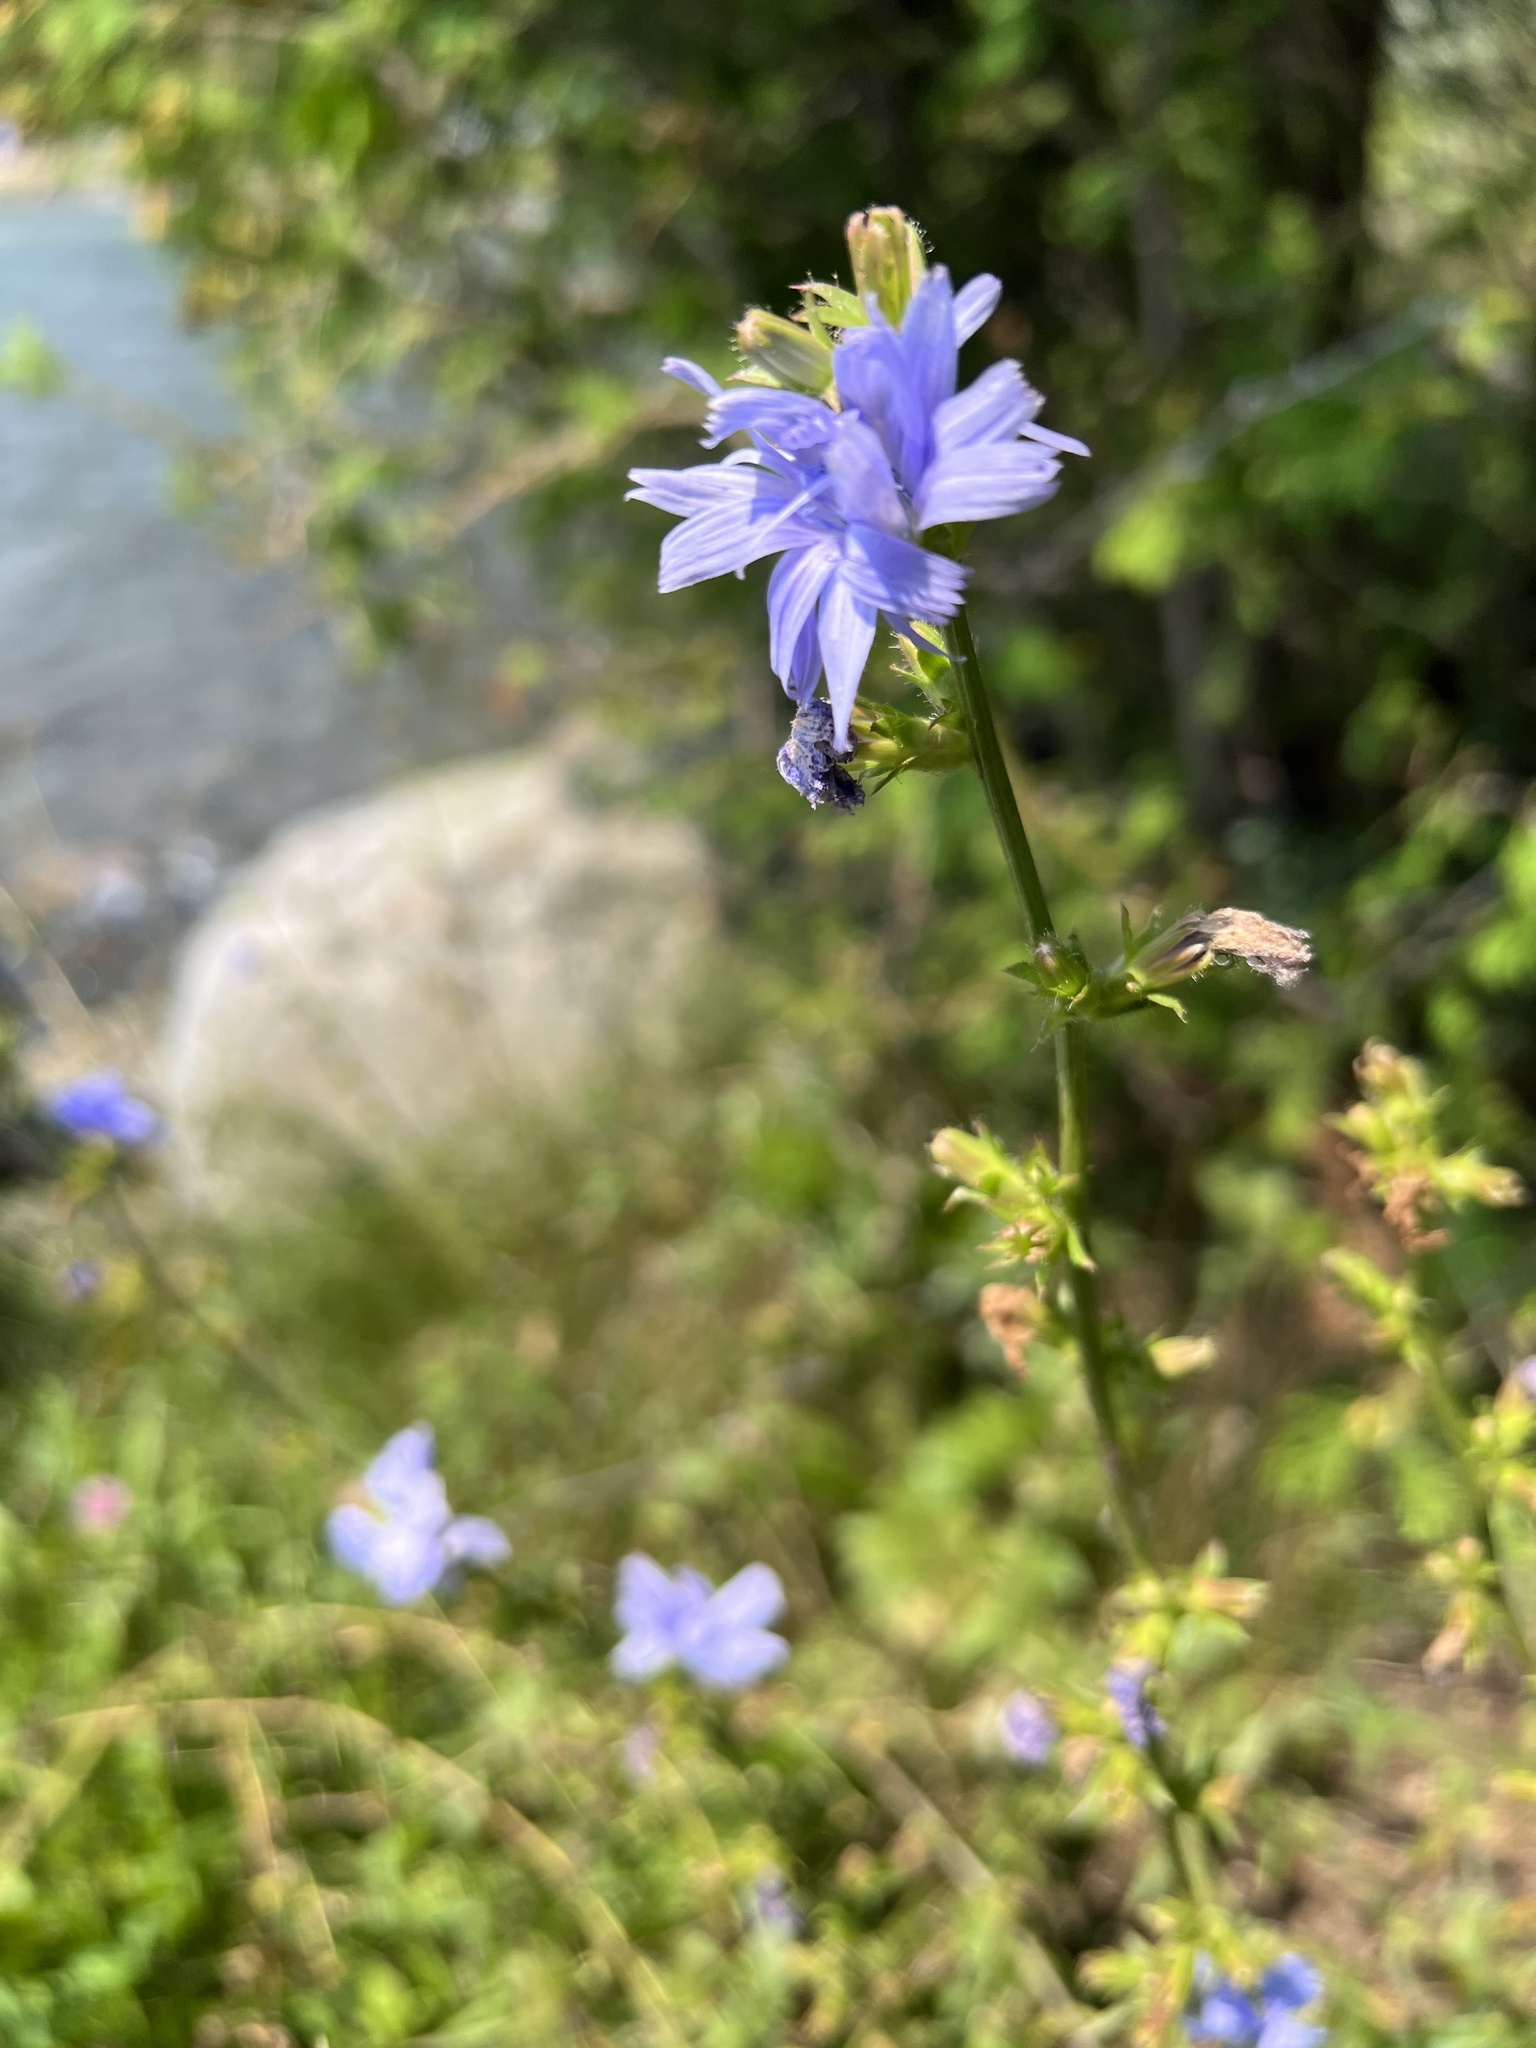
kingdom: Plantae
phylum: Tracheophyta
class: Magnoliopsida
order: Asterales
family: Asteraceae
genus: Cichorium
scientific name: Cichorium intybus
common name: Chicory
